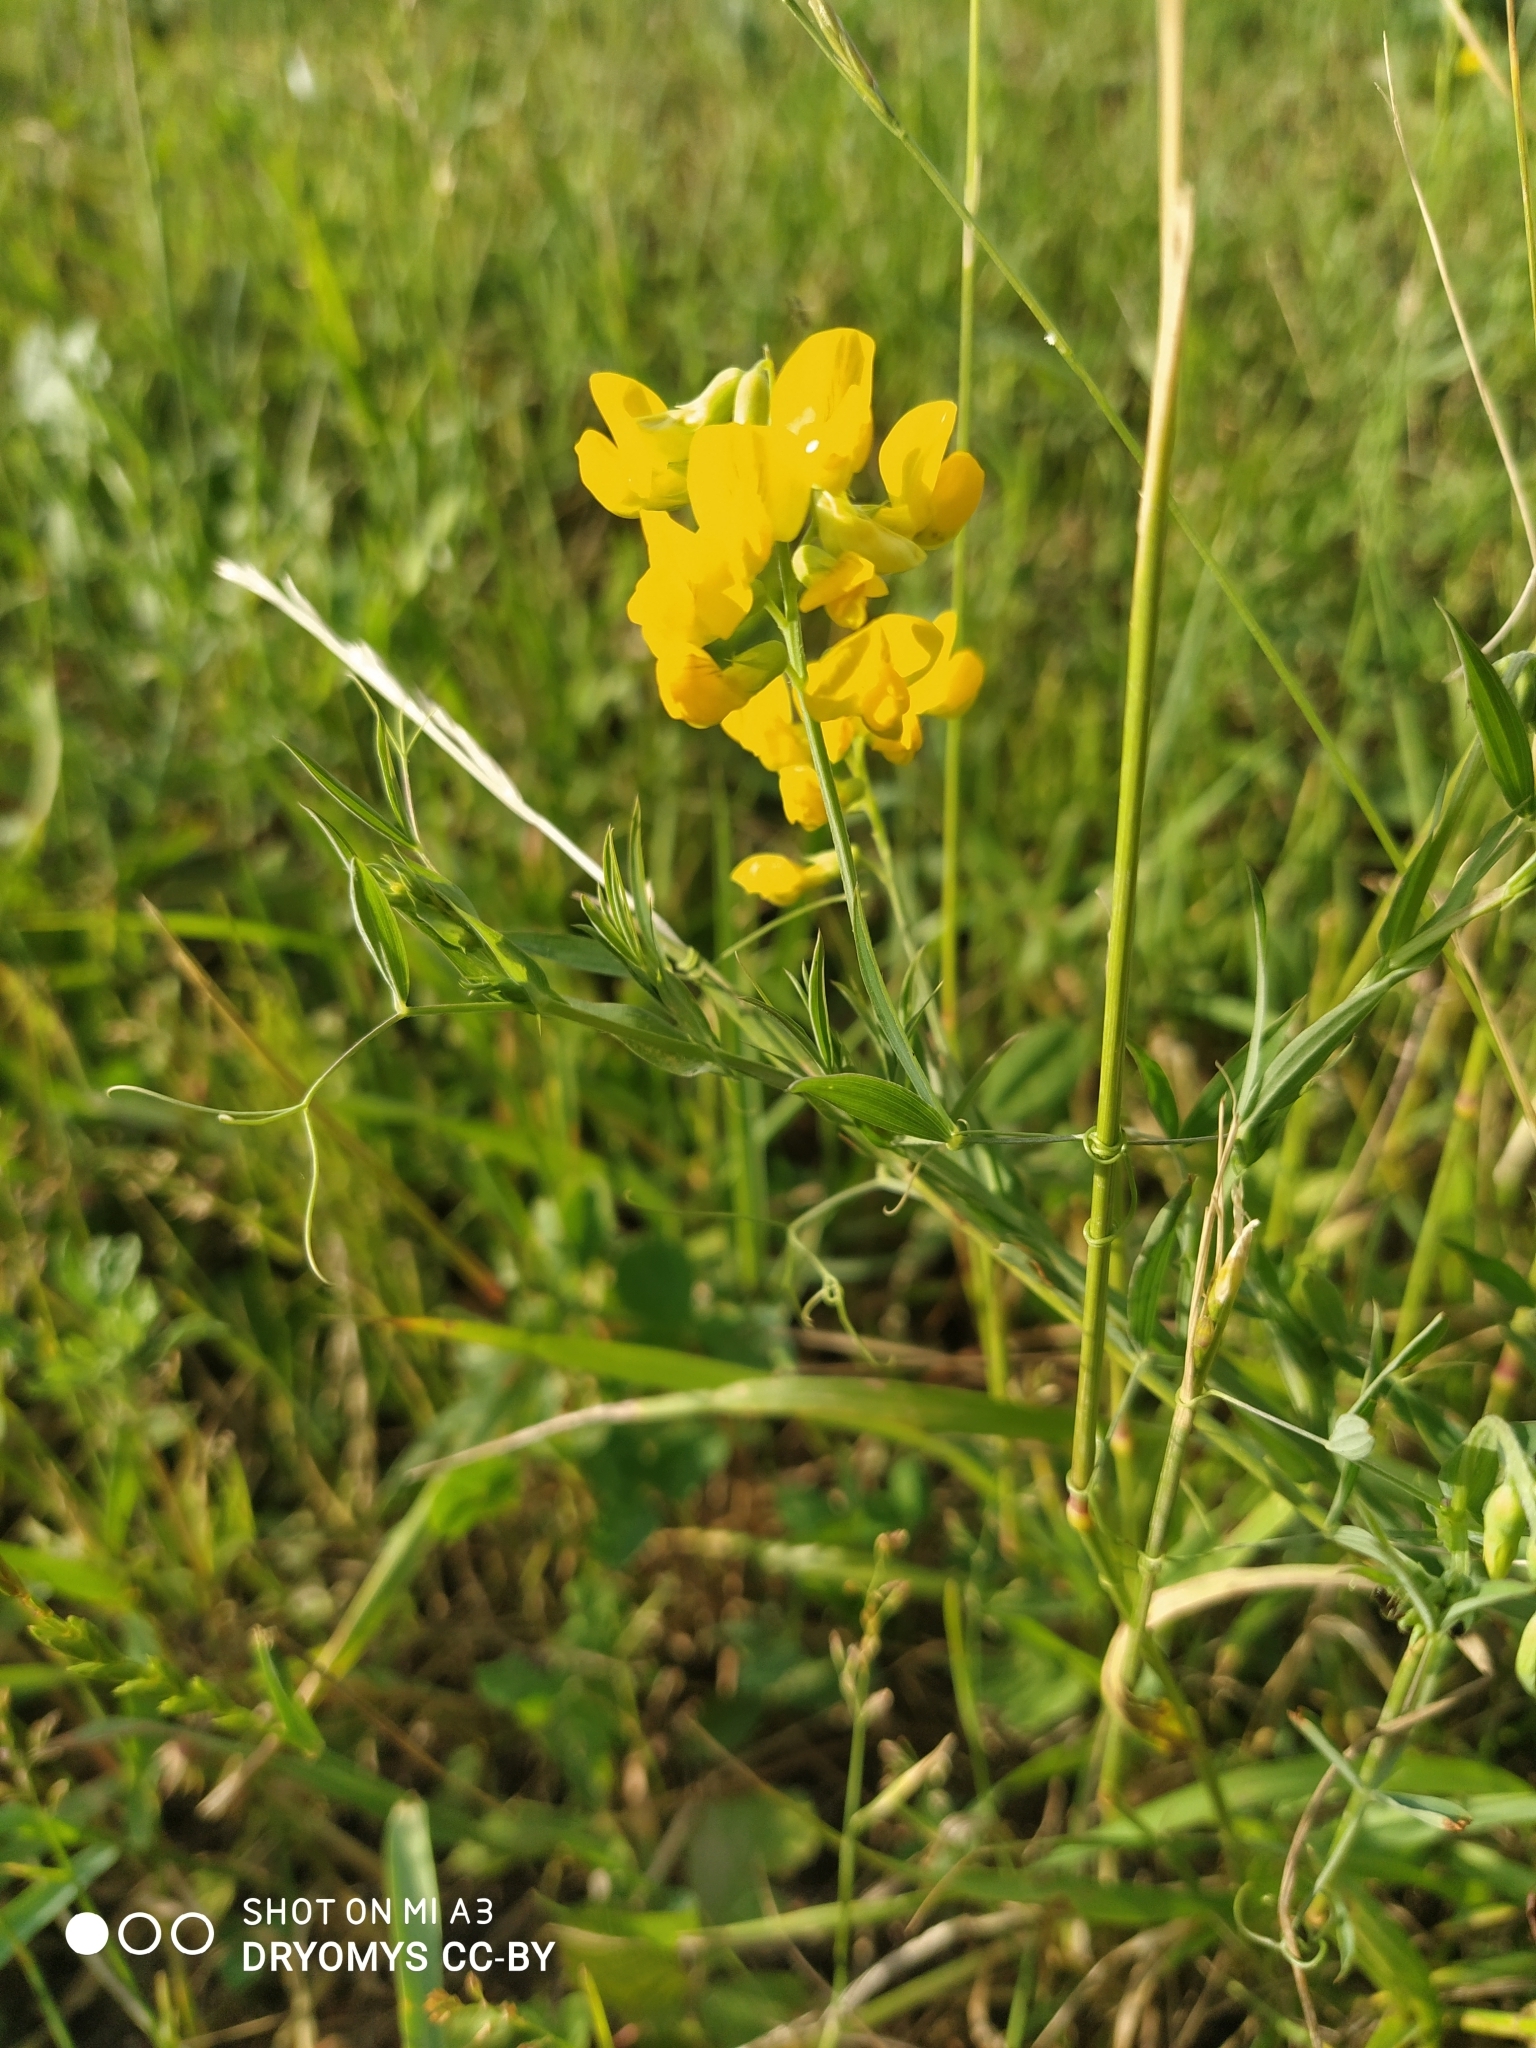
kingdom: Plantae
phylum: Tracheophyta
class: Magnoliopsida
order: Fabales
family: Fabaceae
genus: Lathyrus
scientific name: Lathyrus pratensis
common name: Meadow vetchling
